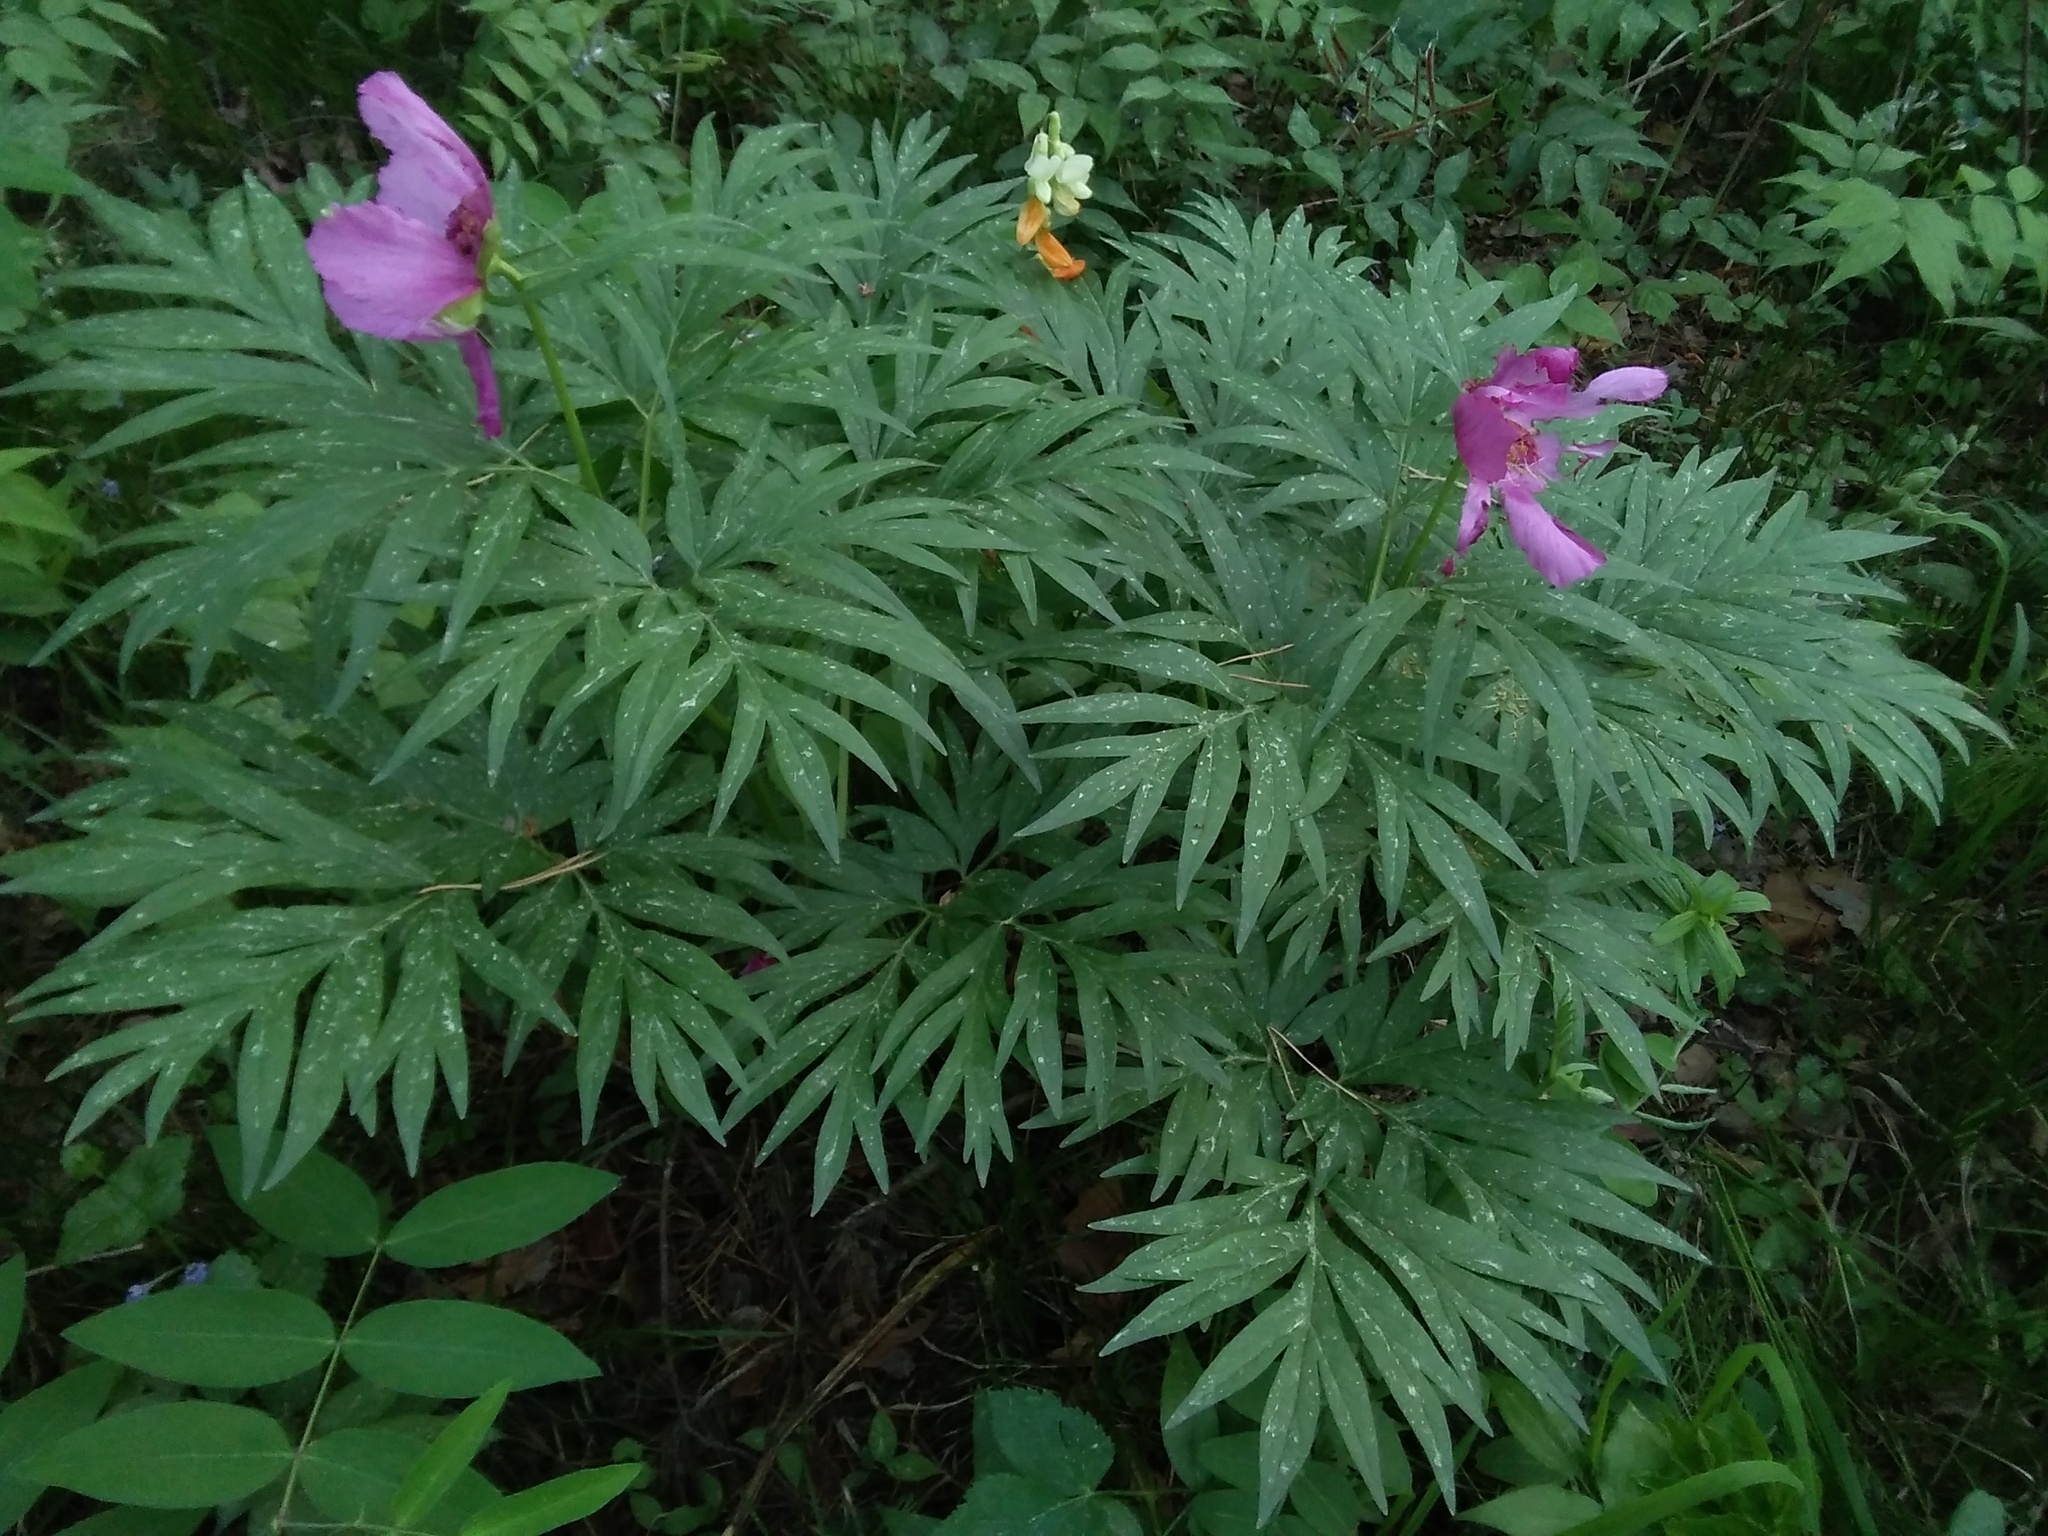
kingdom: Plantae
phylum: Tracheophyta
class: Magnoliopsida
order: Saxifragales
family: Paeoniaceae
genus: Paeonia
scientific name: Paeonia anomala
